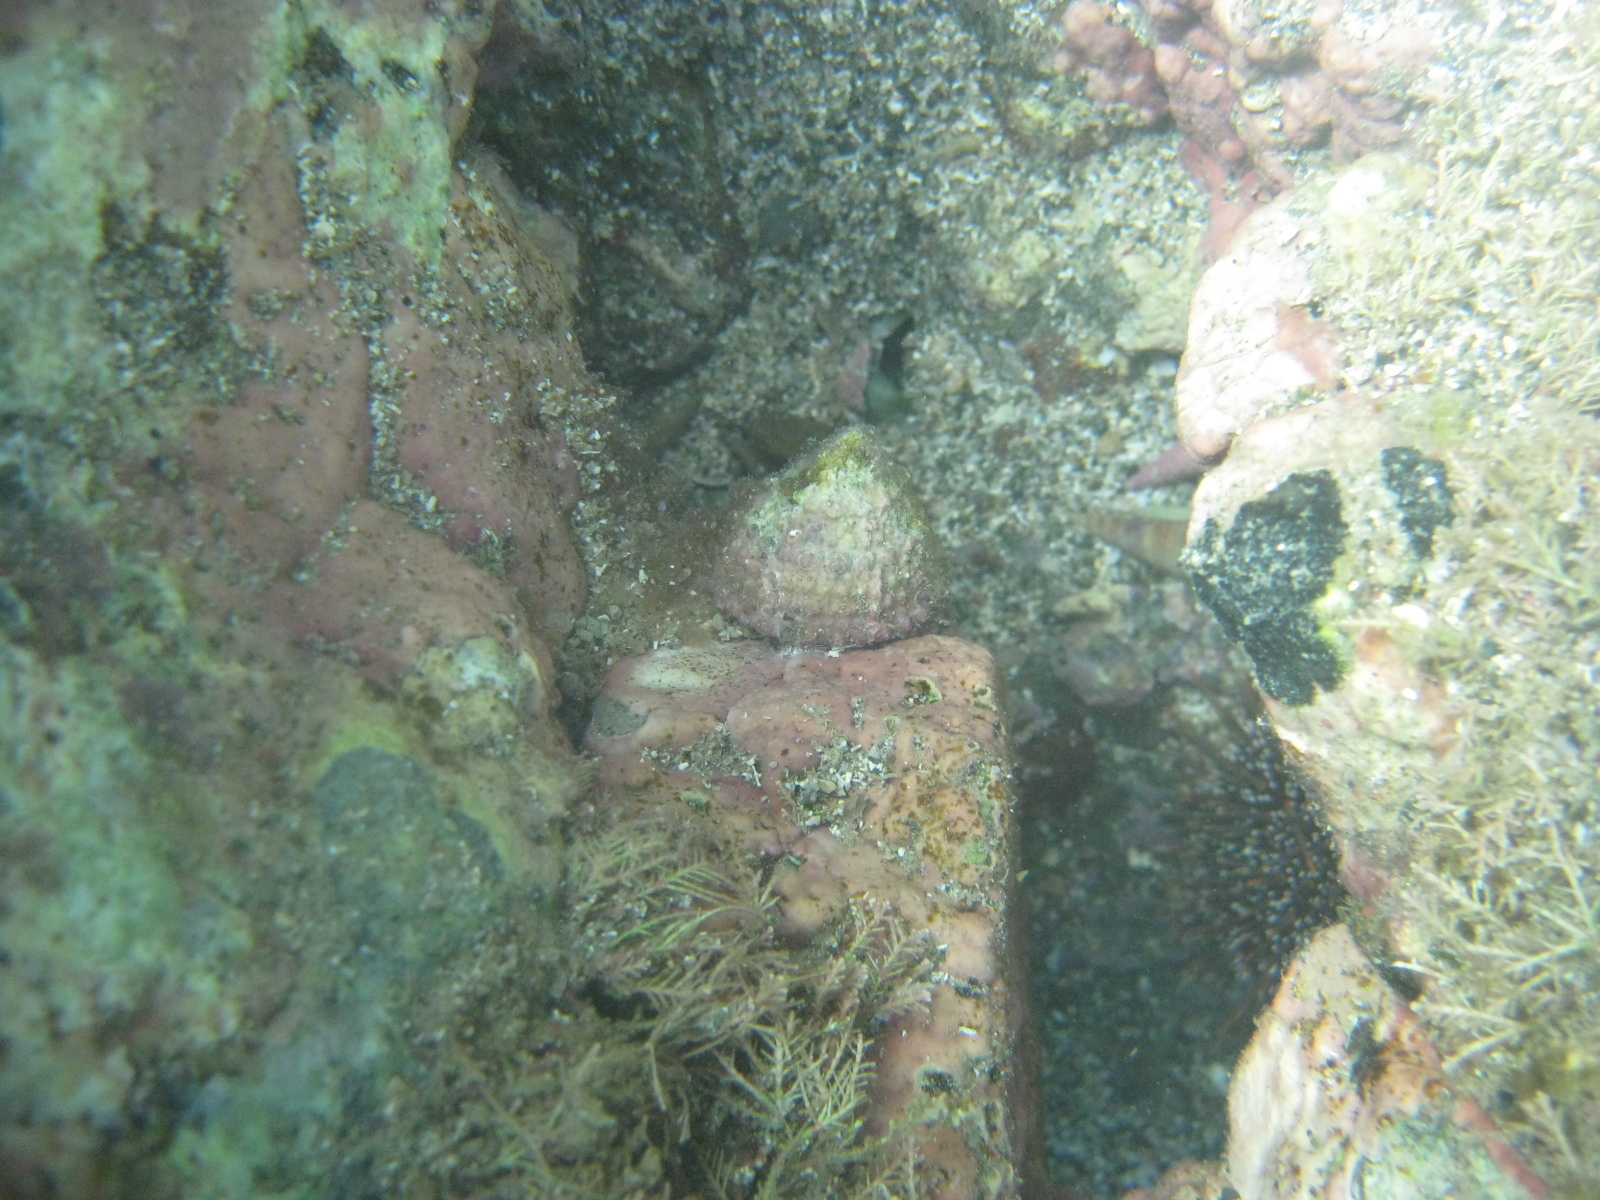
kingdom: Animalia
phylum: Mollusca
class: Gastropoda
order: Trochida
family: Trochidae
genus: Coelotrochus
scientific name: Coelotrochus viridis
